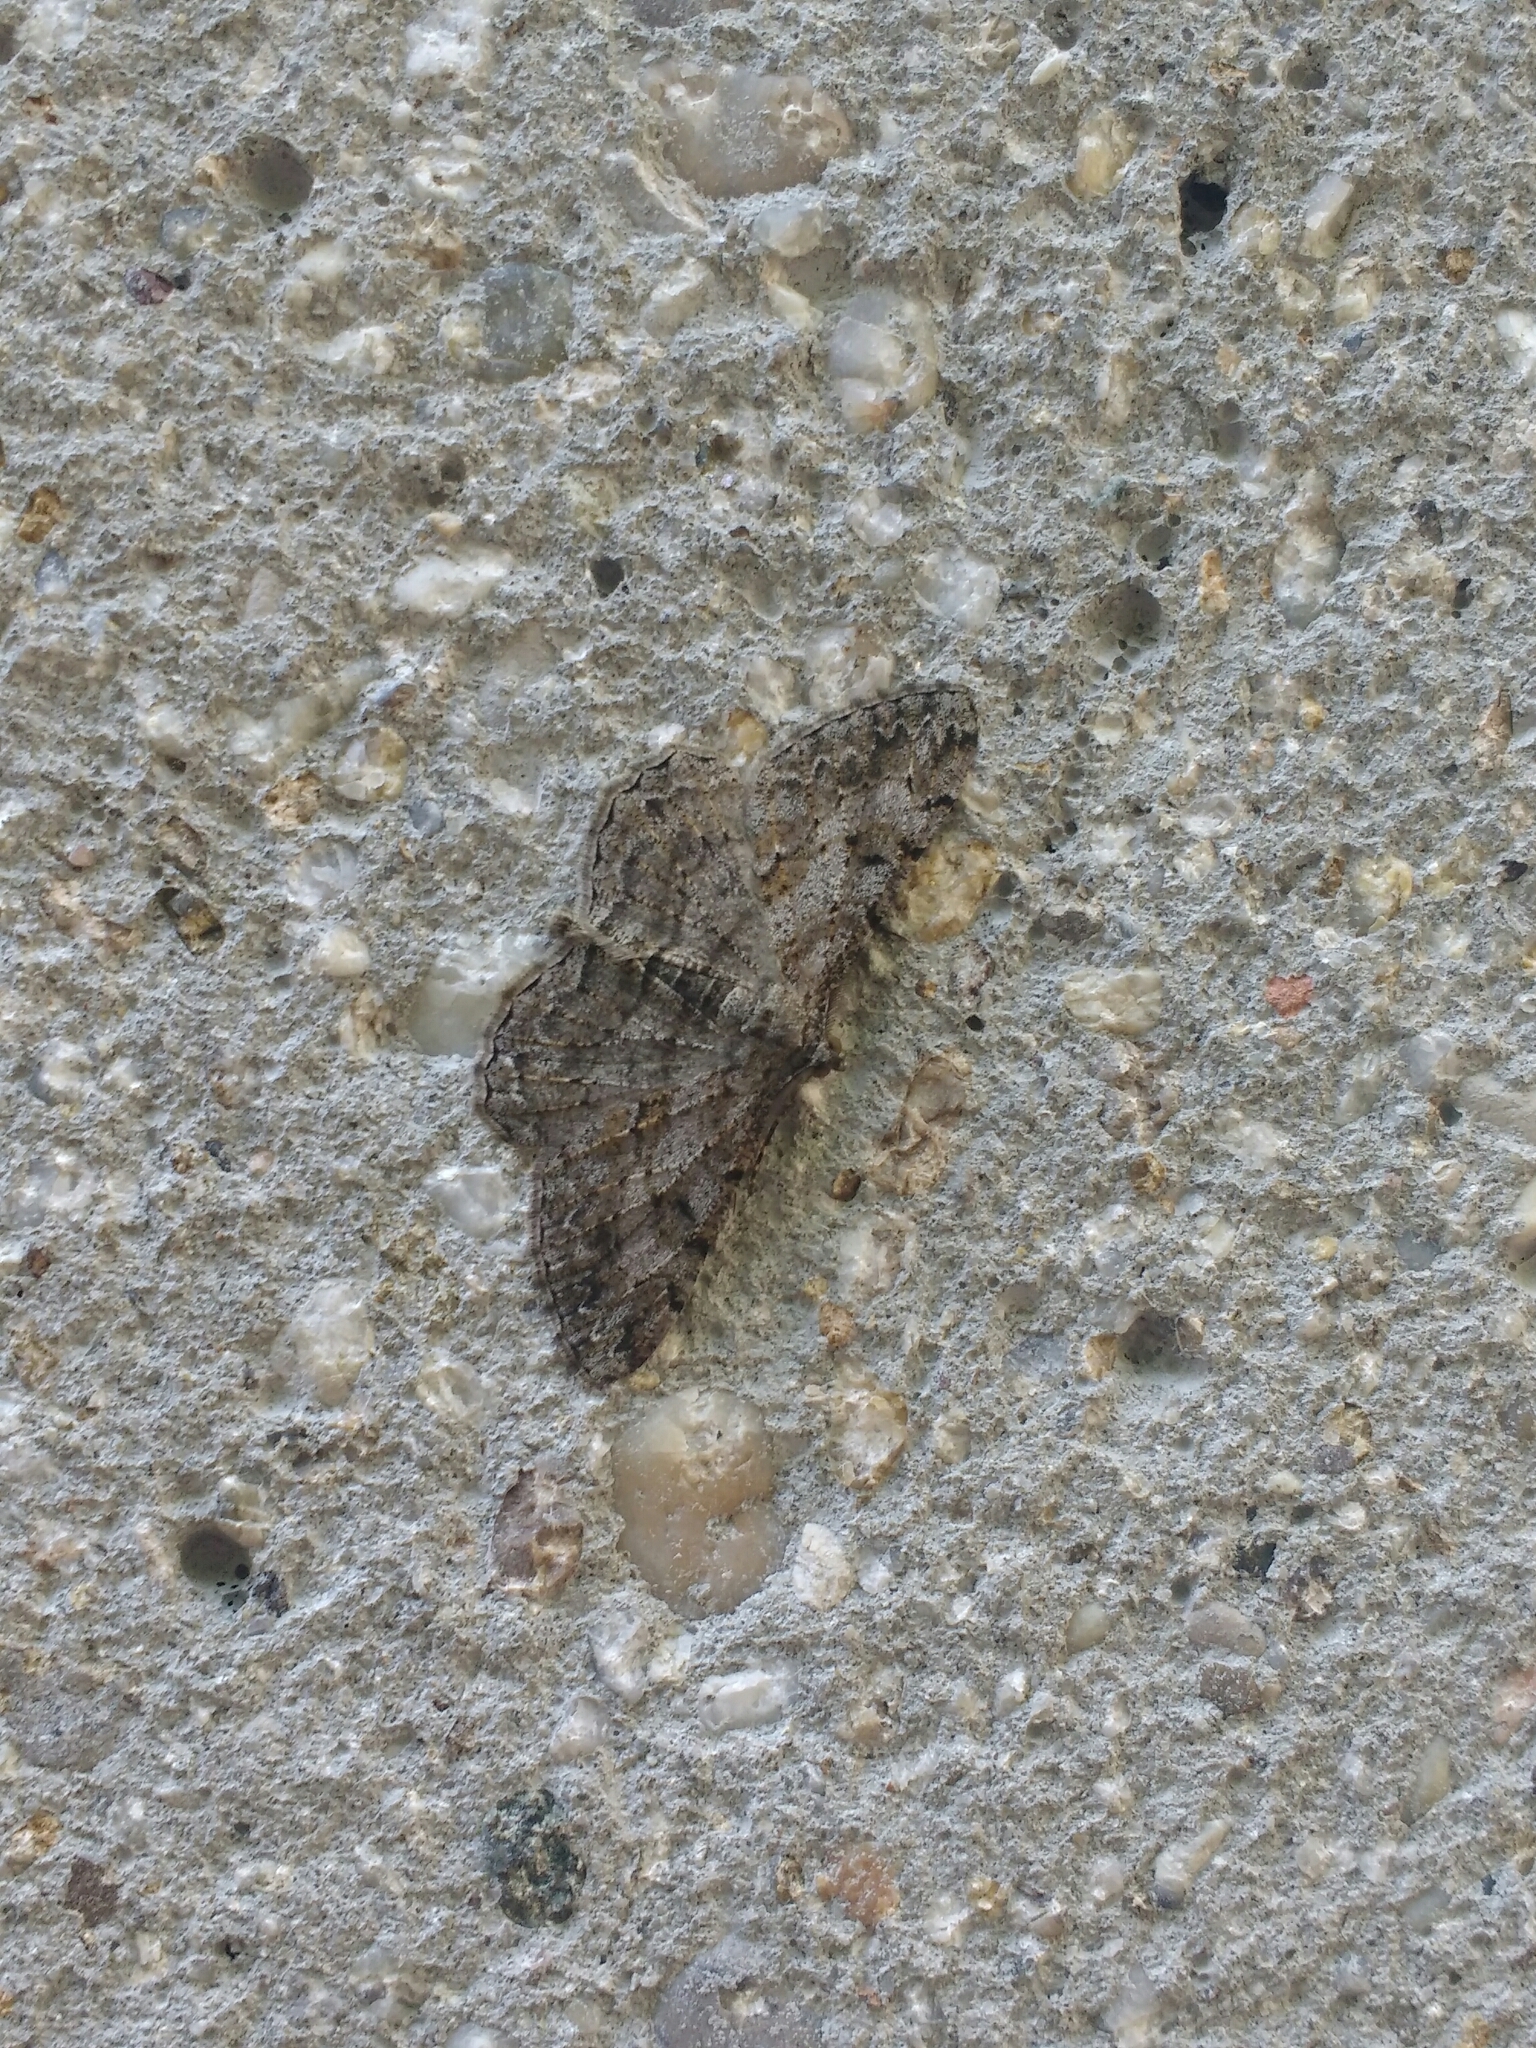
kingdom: Animalia
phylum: Arthropoda
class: Insecta
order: Lepidoptera
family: Geometridae
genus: Peribatodes
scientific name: Peribatodes rhomboidaria
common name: Willow beauty
